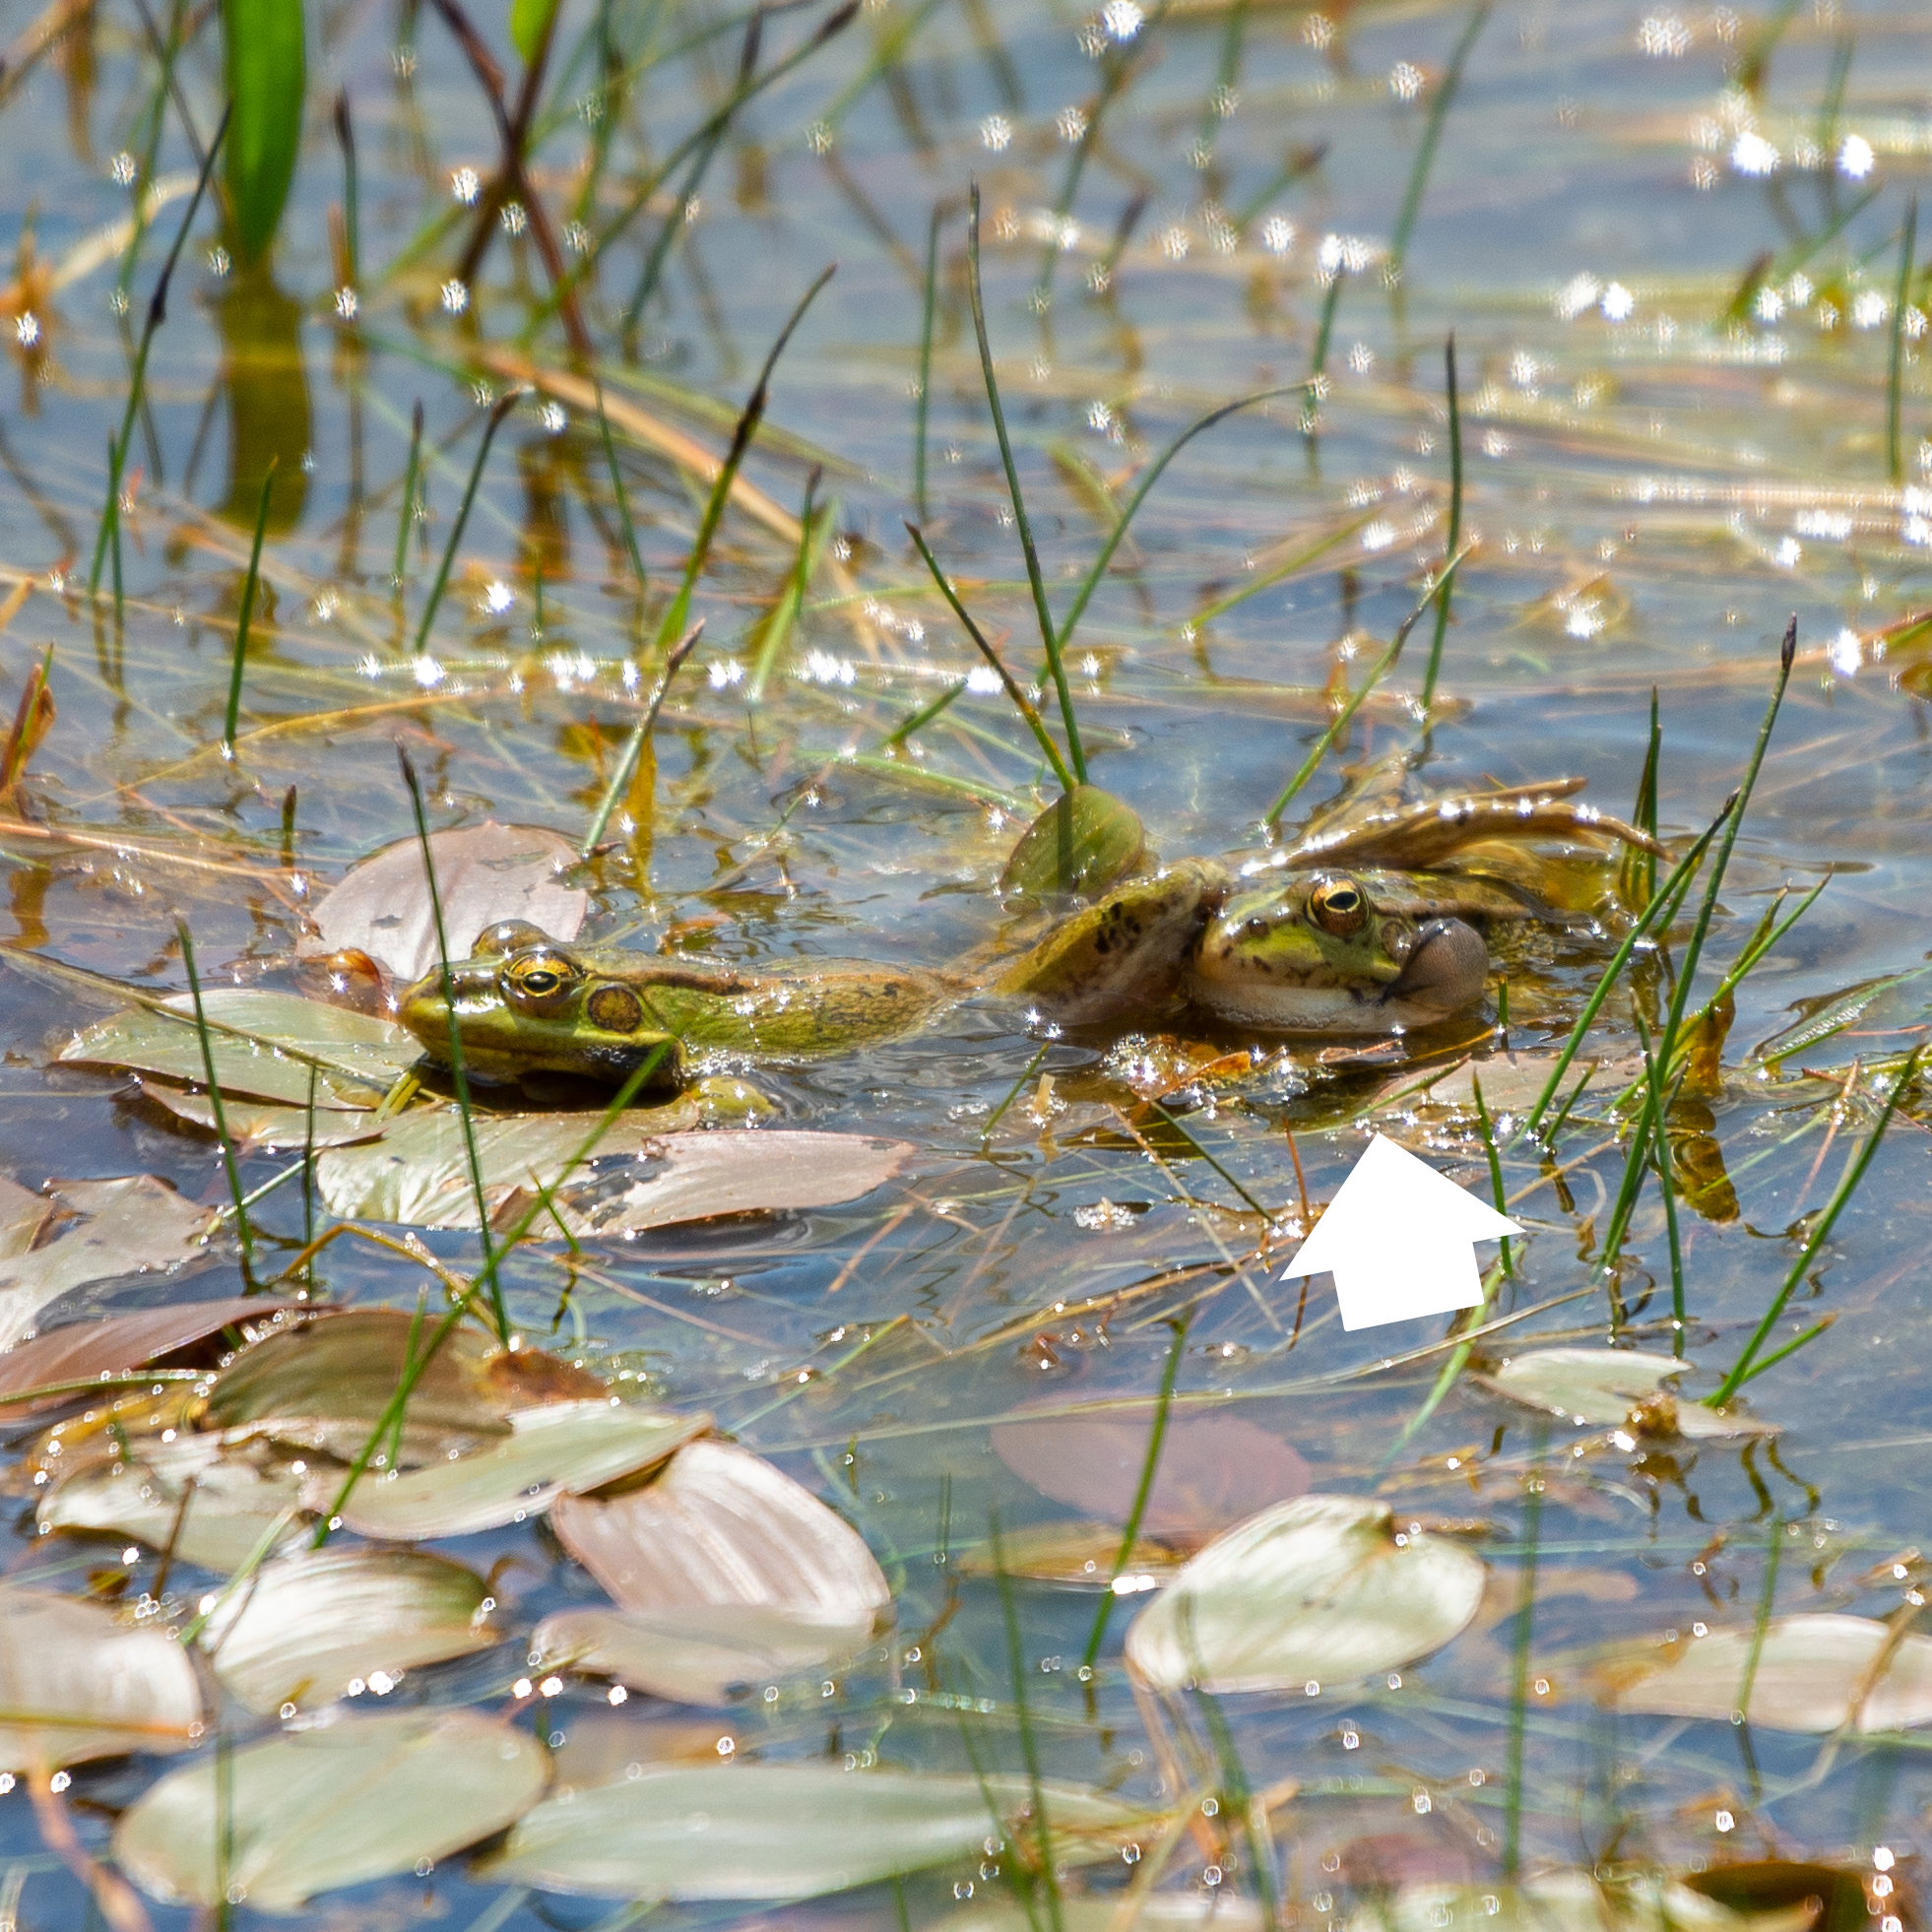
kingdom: Animalia
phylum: Chordata
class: Amphibia
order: Anura
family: Ranidae
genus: Pelophylax
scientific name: Pelophylax perezi
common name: Perez's frog
